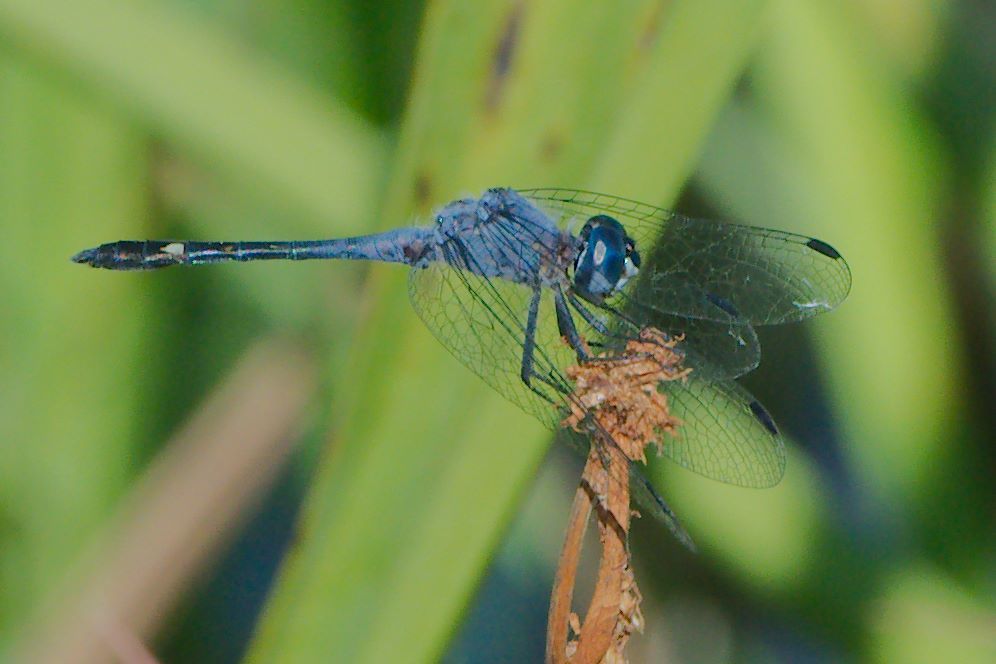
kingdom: Animalia
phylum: Arthropoda
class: Insecta
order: Odonata
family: Libellulidae
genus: Micrathyria
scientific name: Micrathyria aequalis
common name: Spot-tailed dasher
